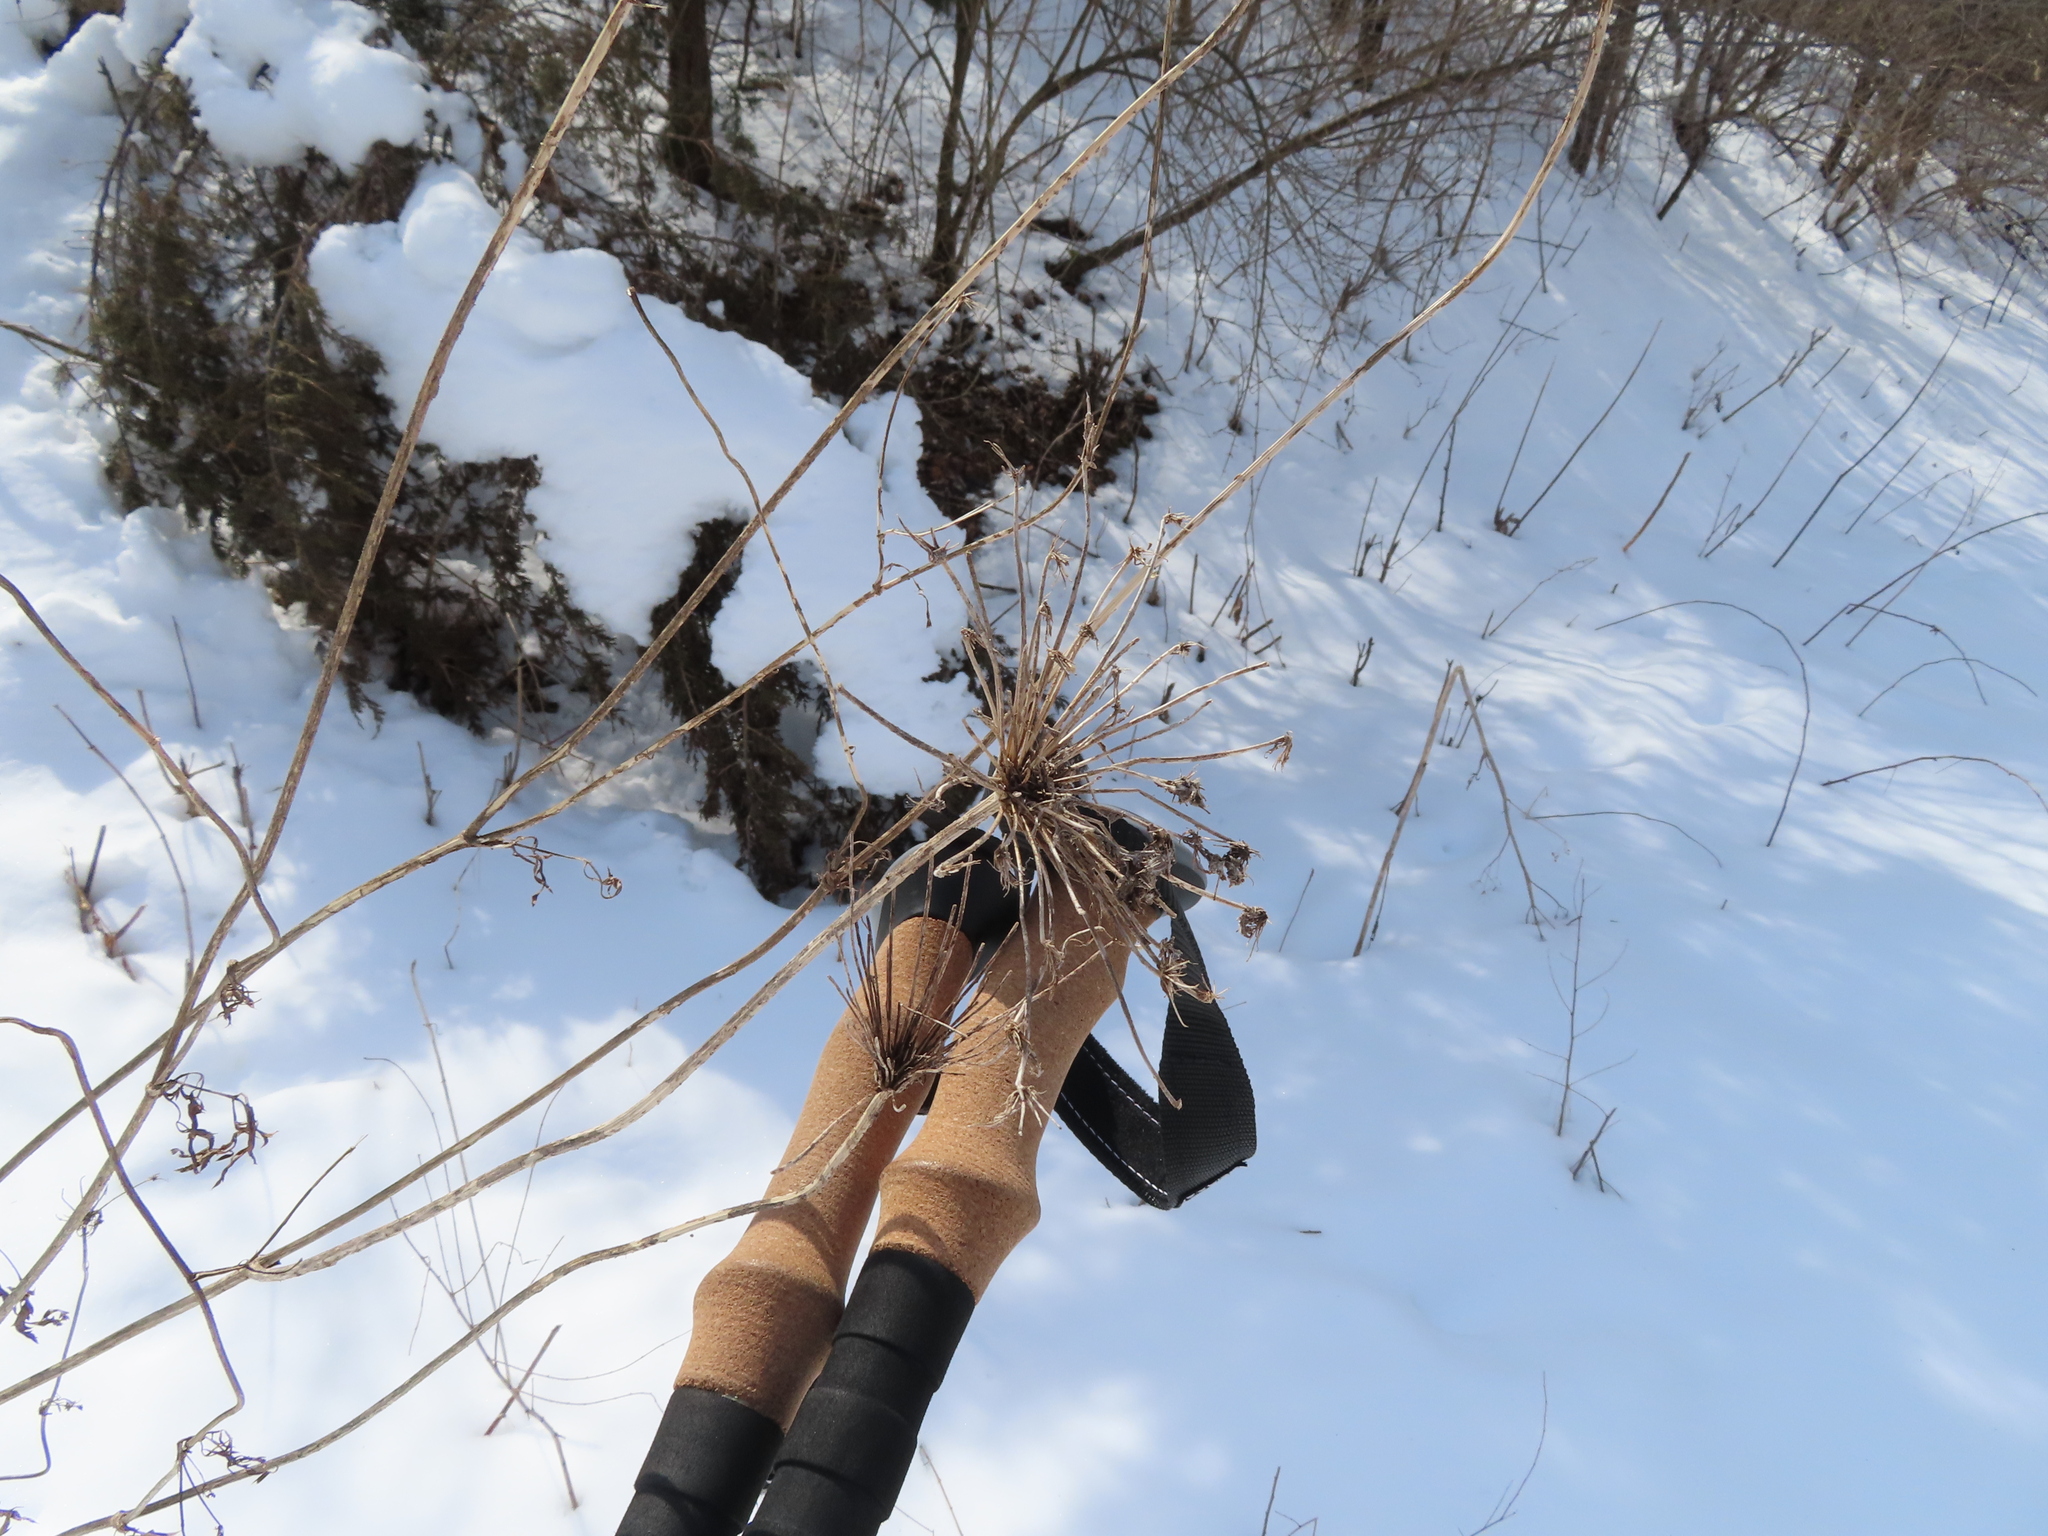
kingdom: Plantae
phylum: Tracheophyta
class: Magnoliopsida
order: Apiales
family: Apiaceae
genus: Pastinaca
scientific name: Pastinaca sativa
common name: Wild parsnip
